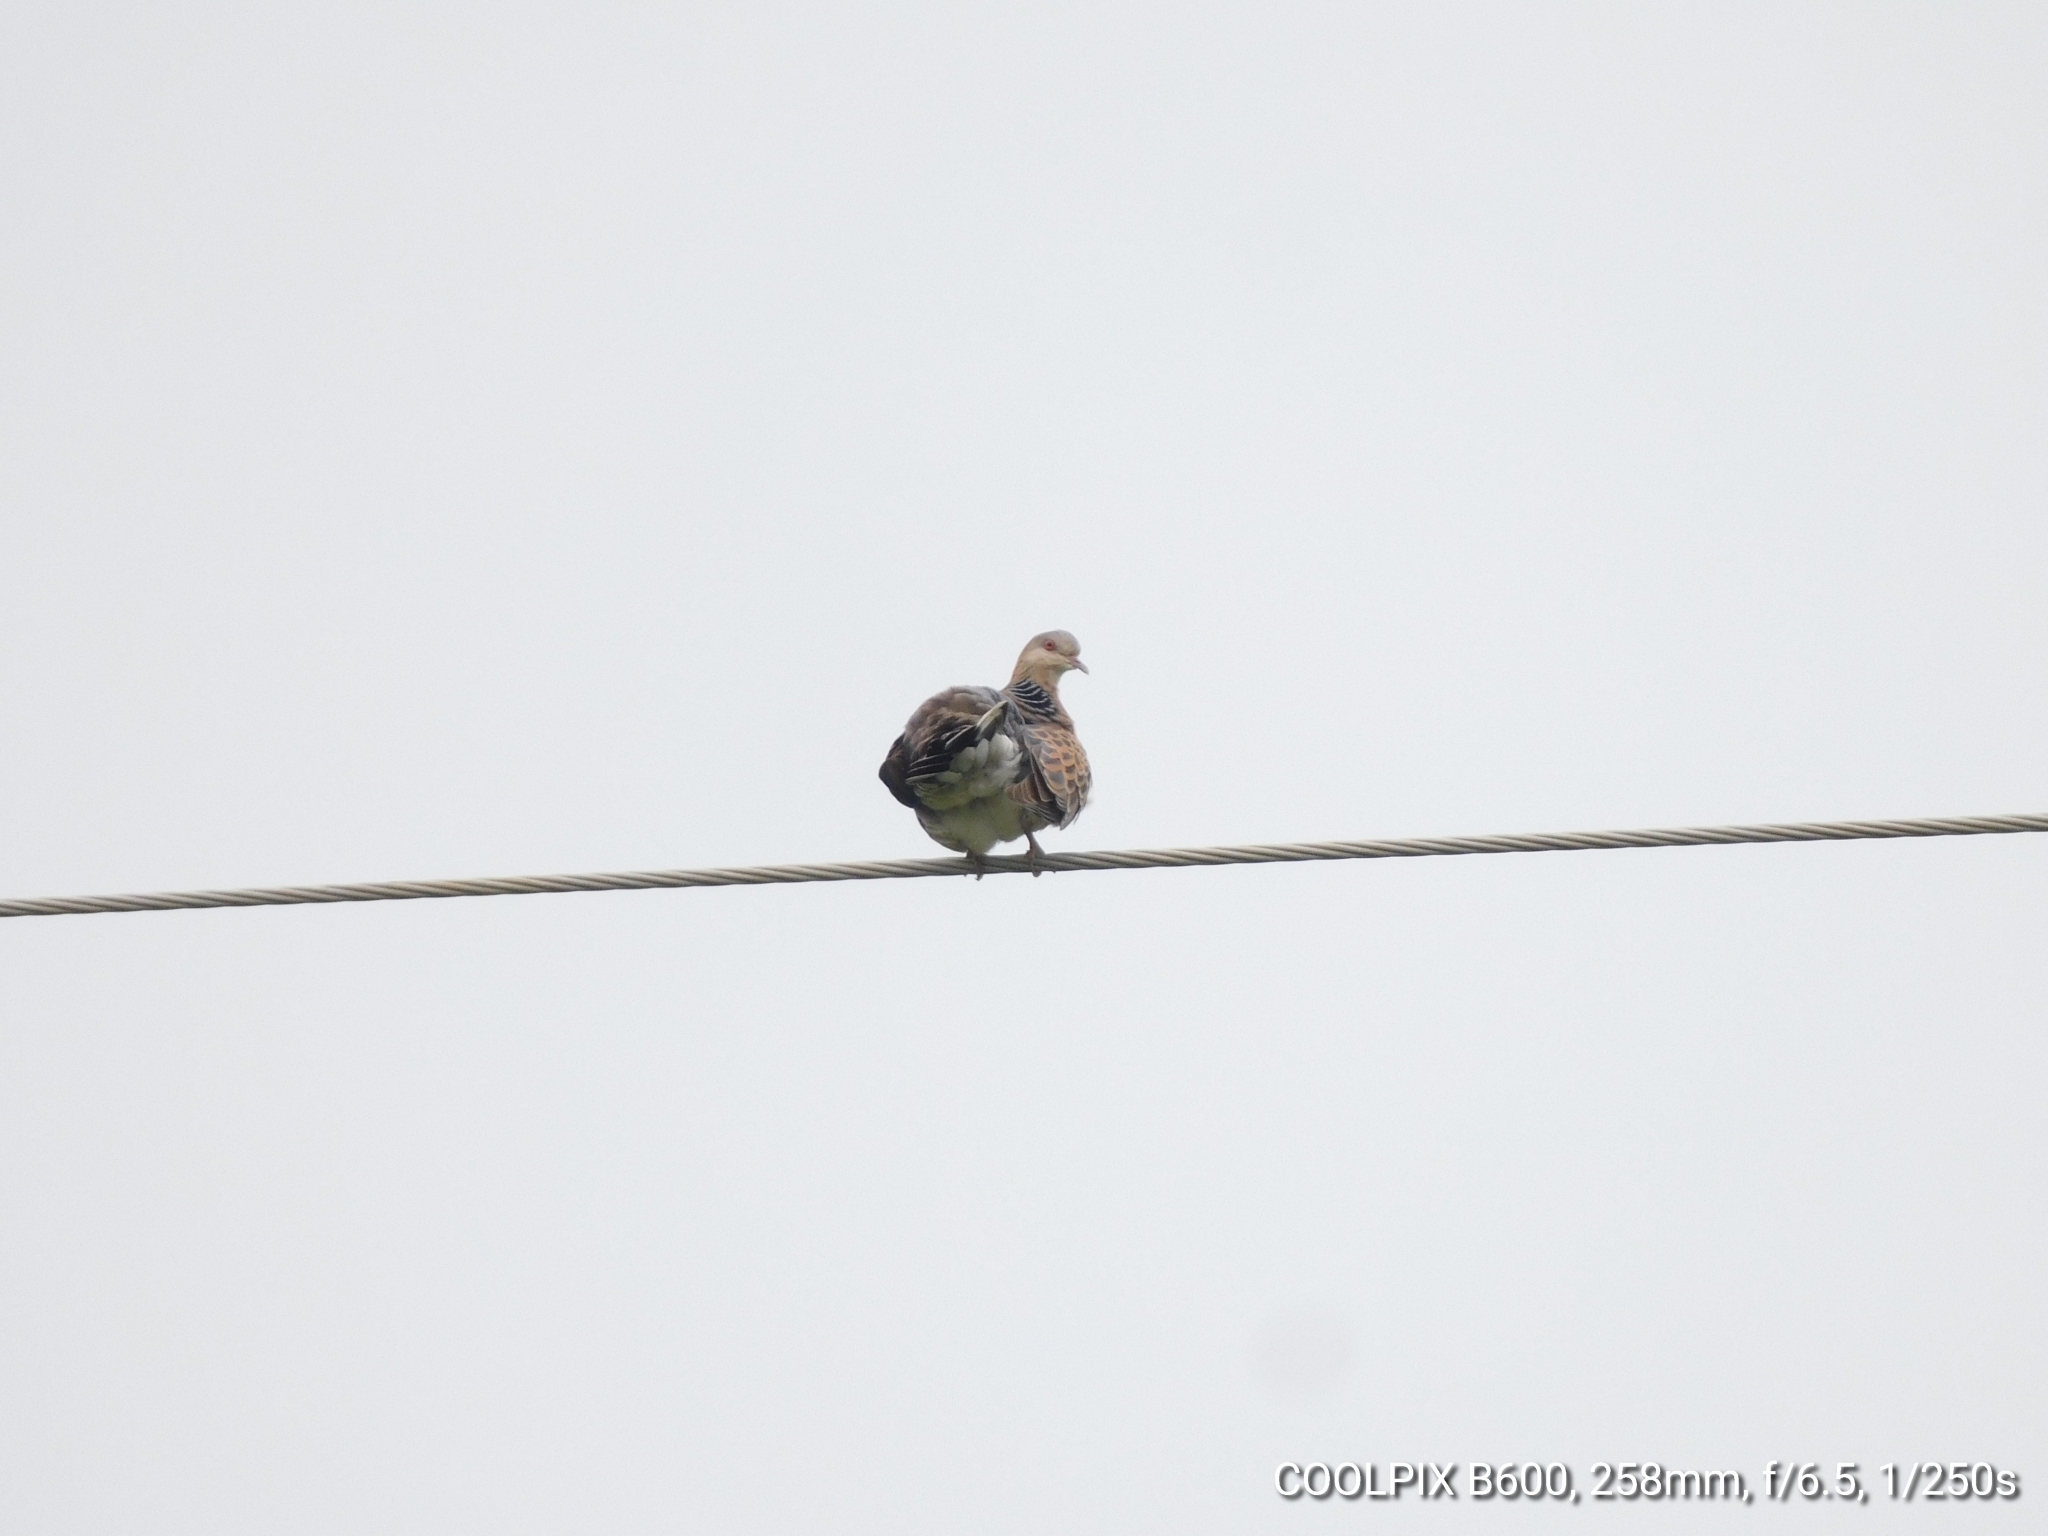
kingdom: Animalia
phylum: Chordata
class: Aves
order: Columbiformes
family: Columbidae
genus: Streptopelia
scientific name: Streptopelia orientalis
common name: Oriental turtle dove
